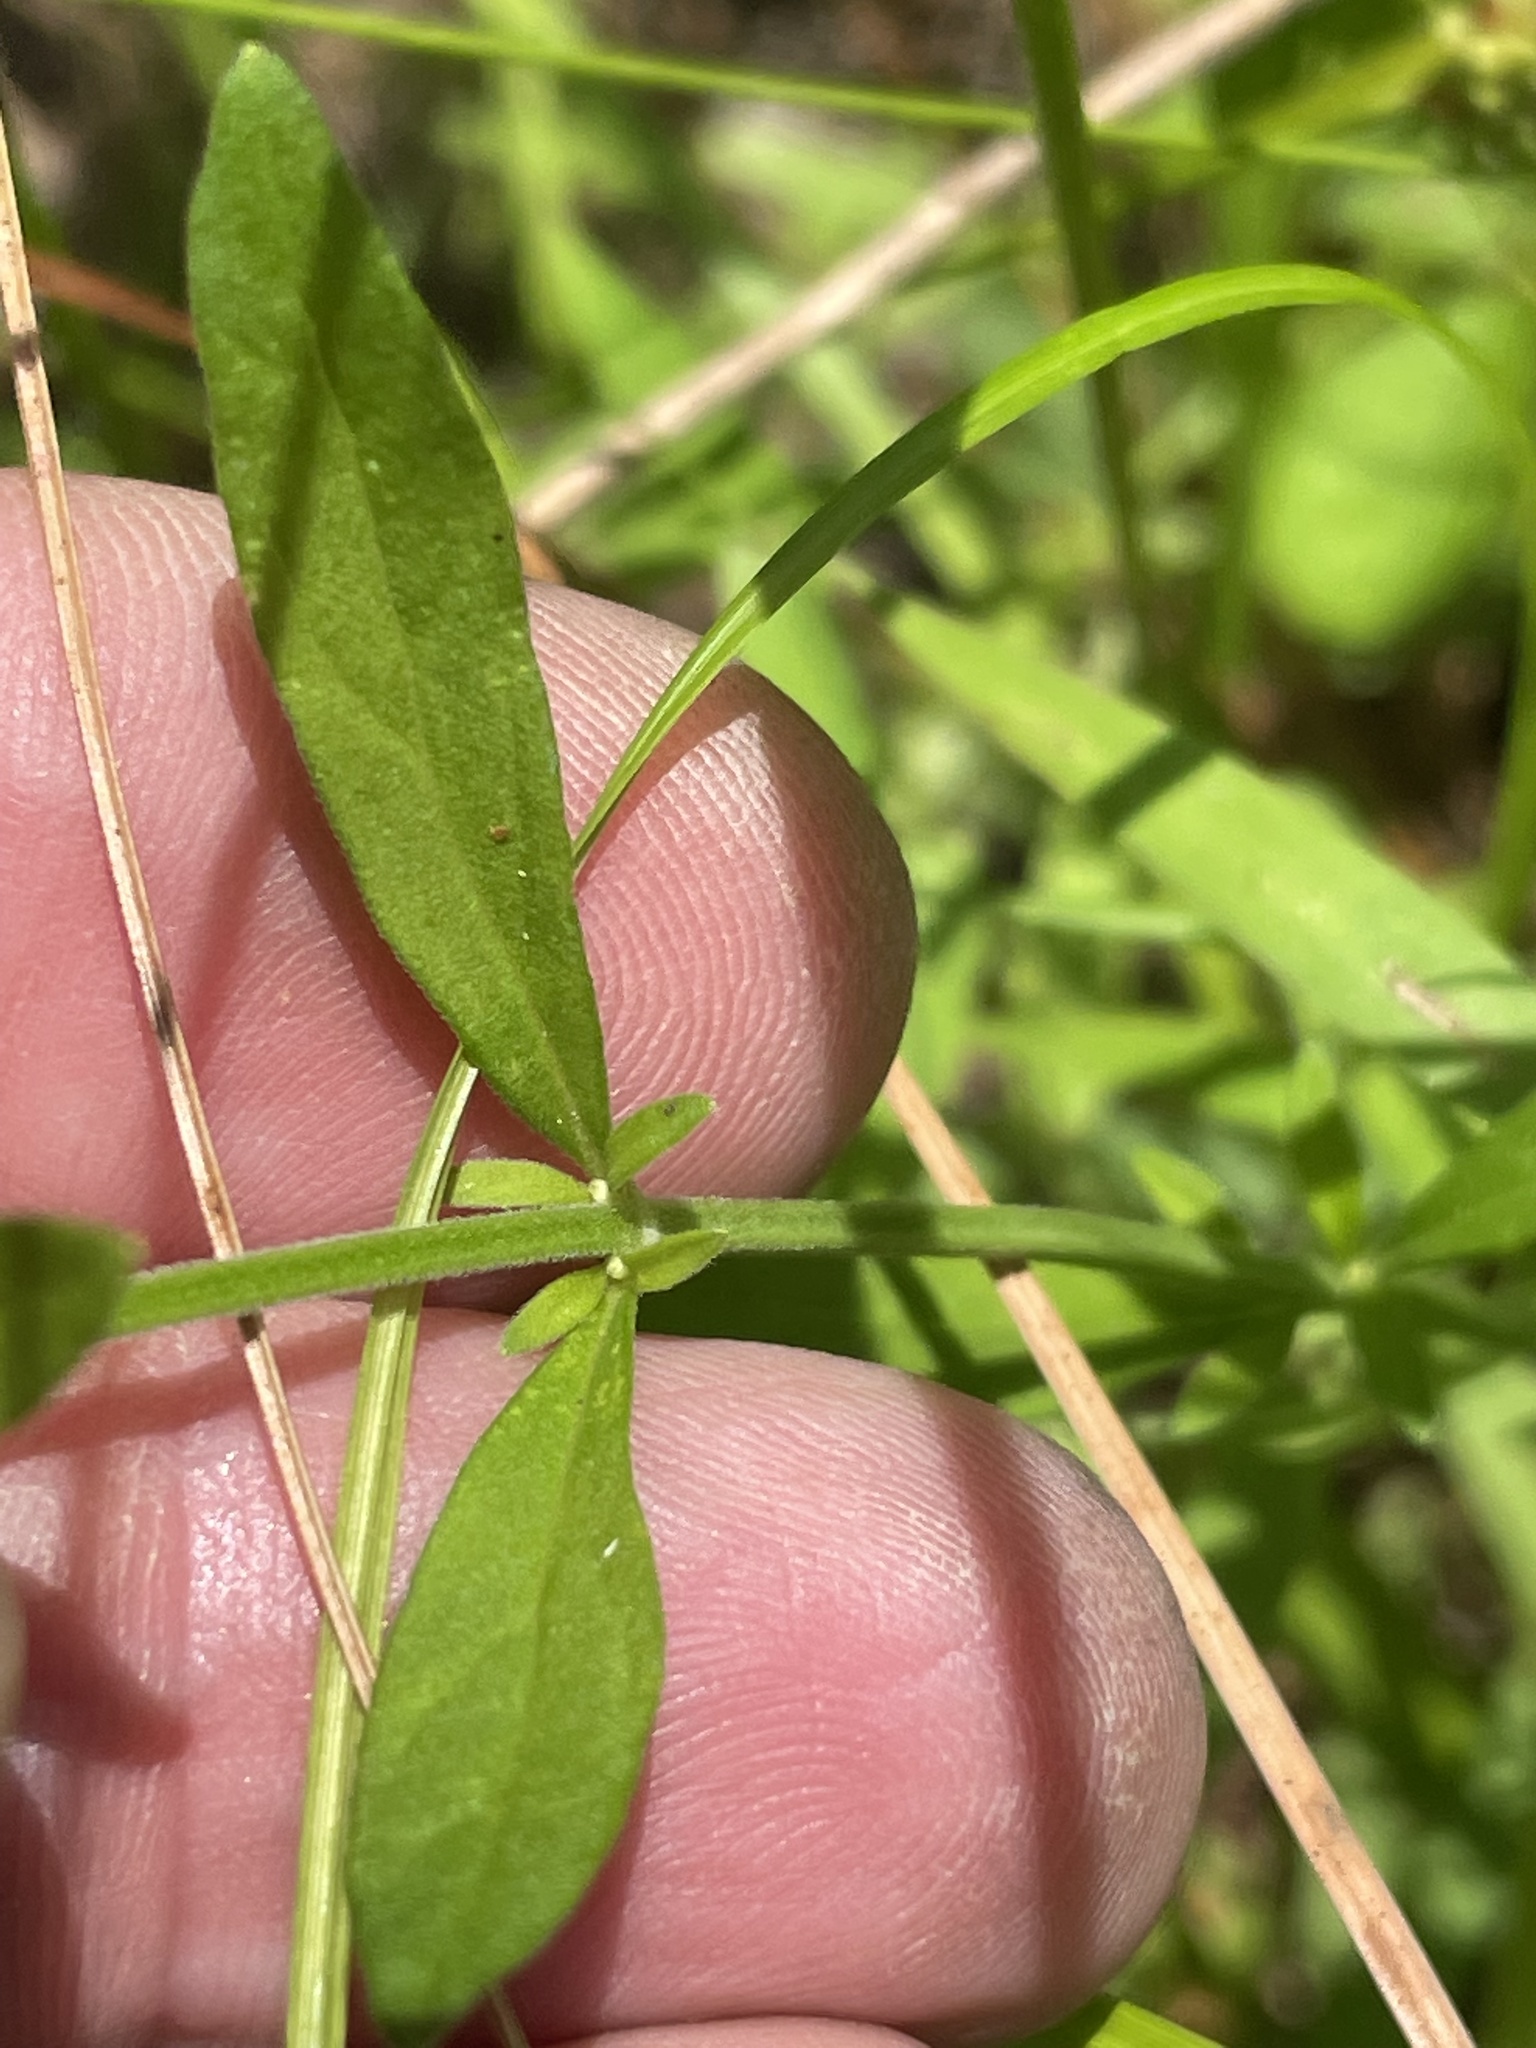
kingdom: Plantae
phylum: Tracheophyta
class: Magnoliopsida
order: Lamiales
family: Lamiaceae
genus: Scutellaria
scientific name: Scutellaria integrifolia
